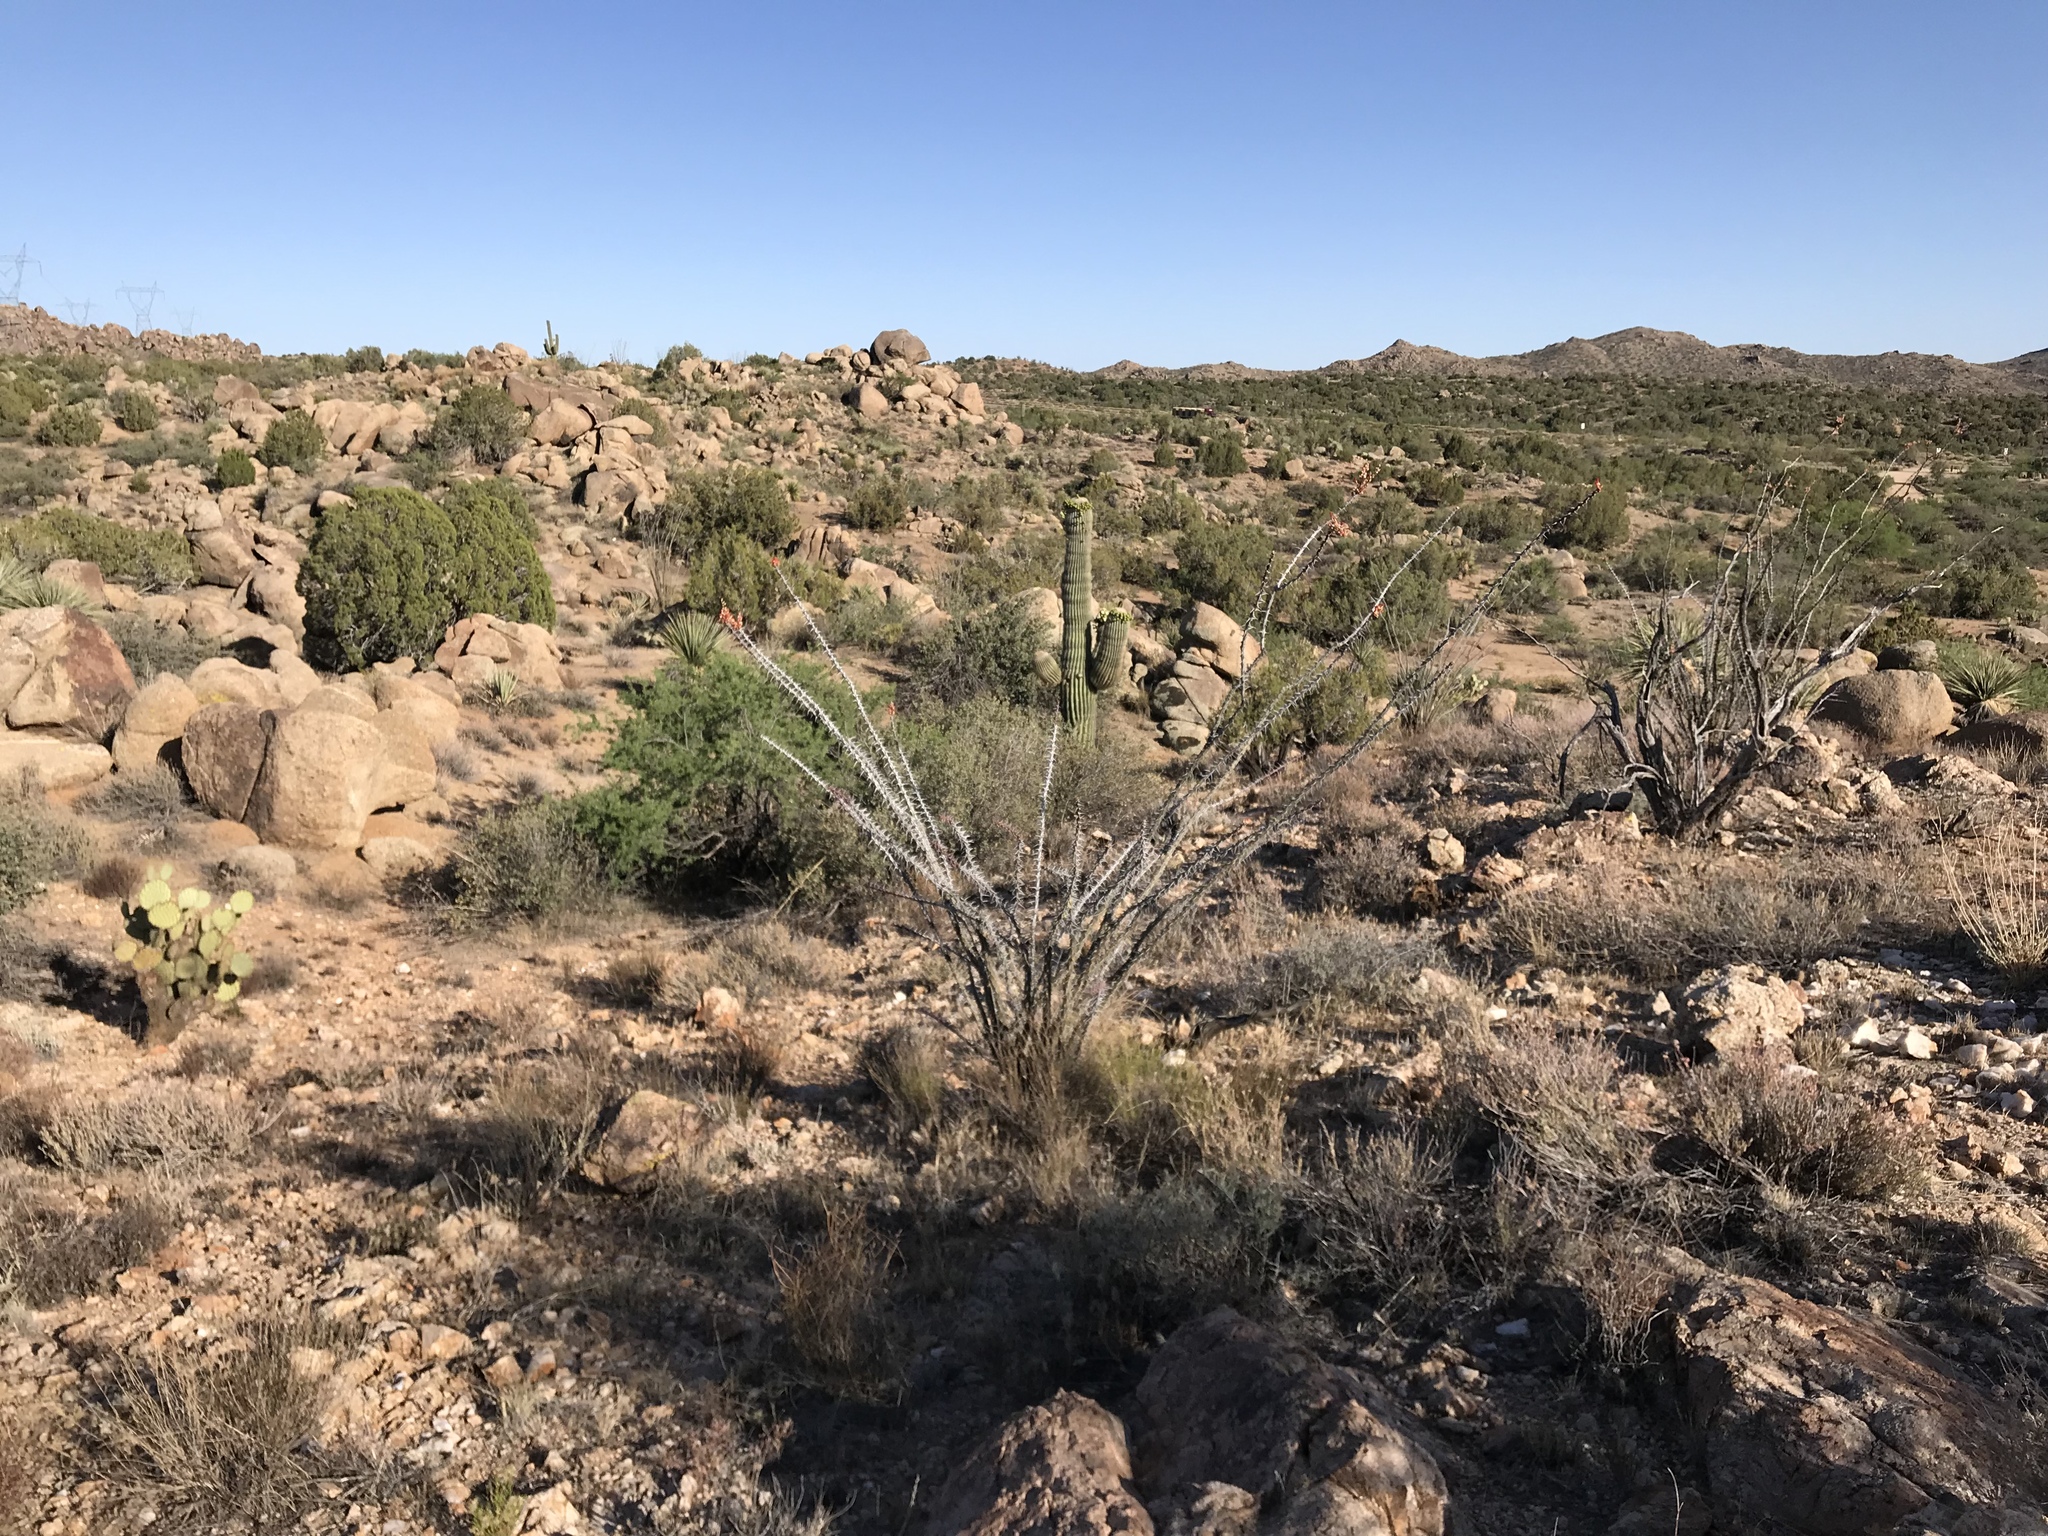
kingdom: Plantae
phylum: Tracheophyta
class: Magnoliopsida
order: Ericales
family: Fouquieriaceae
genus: Fouquieria
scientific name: Fouquieria splendens
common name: Vine-cactus
